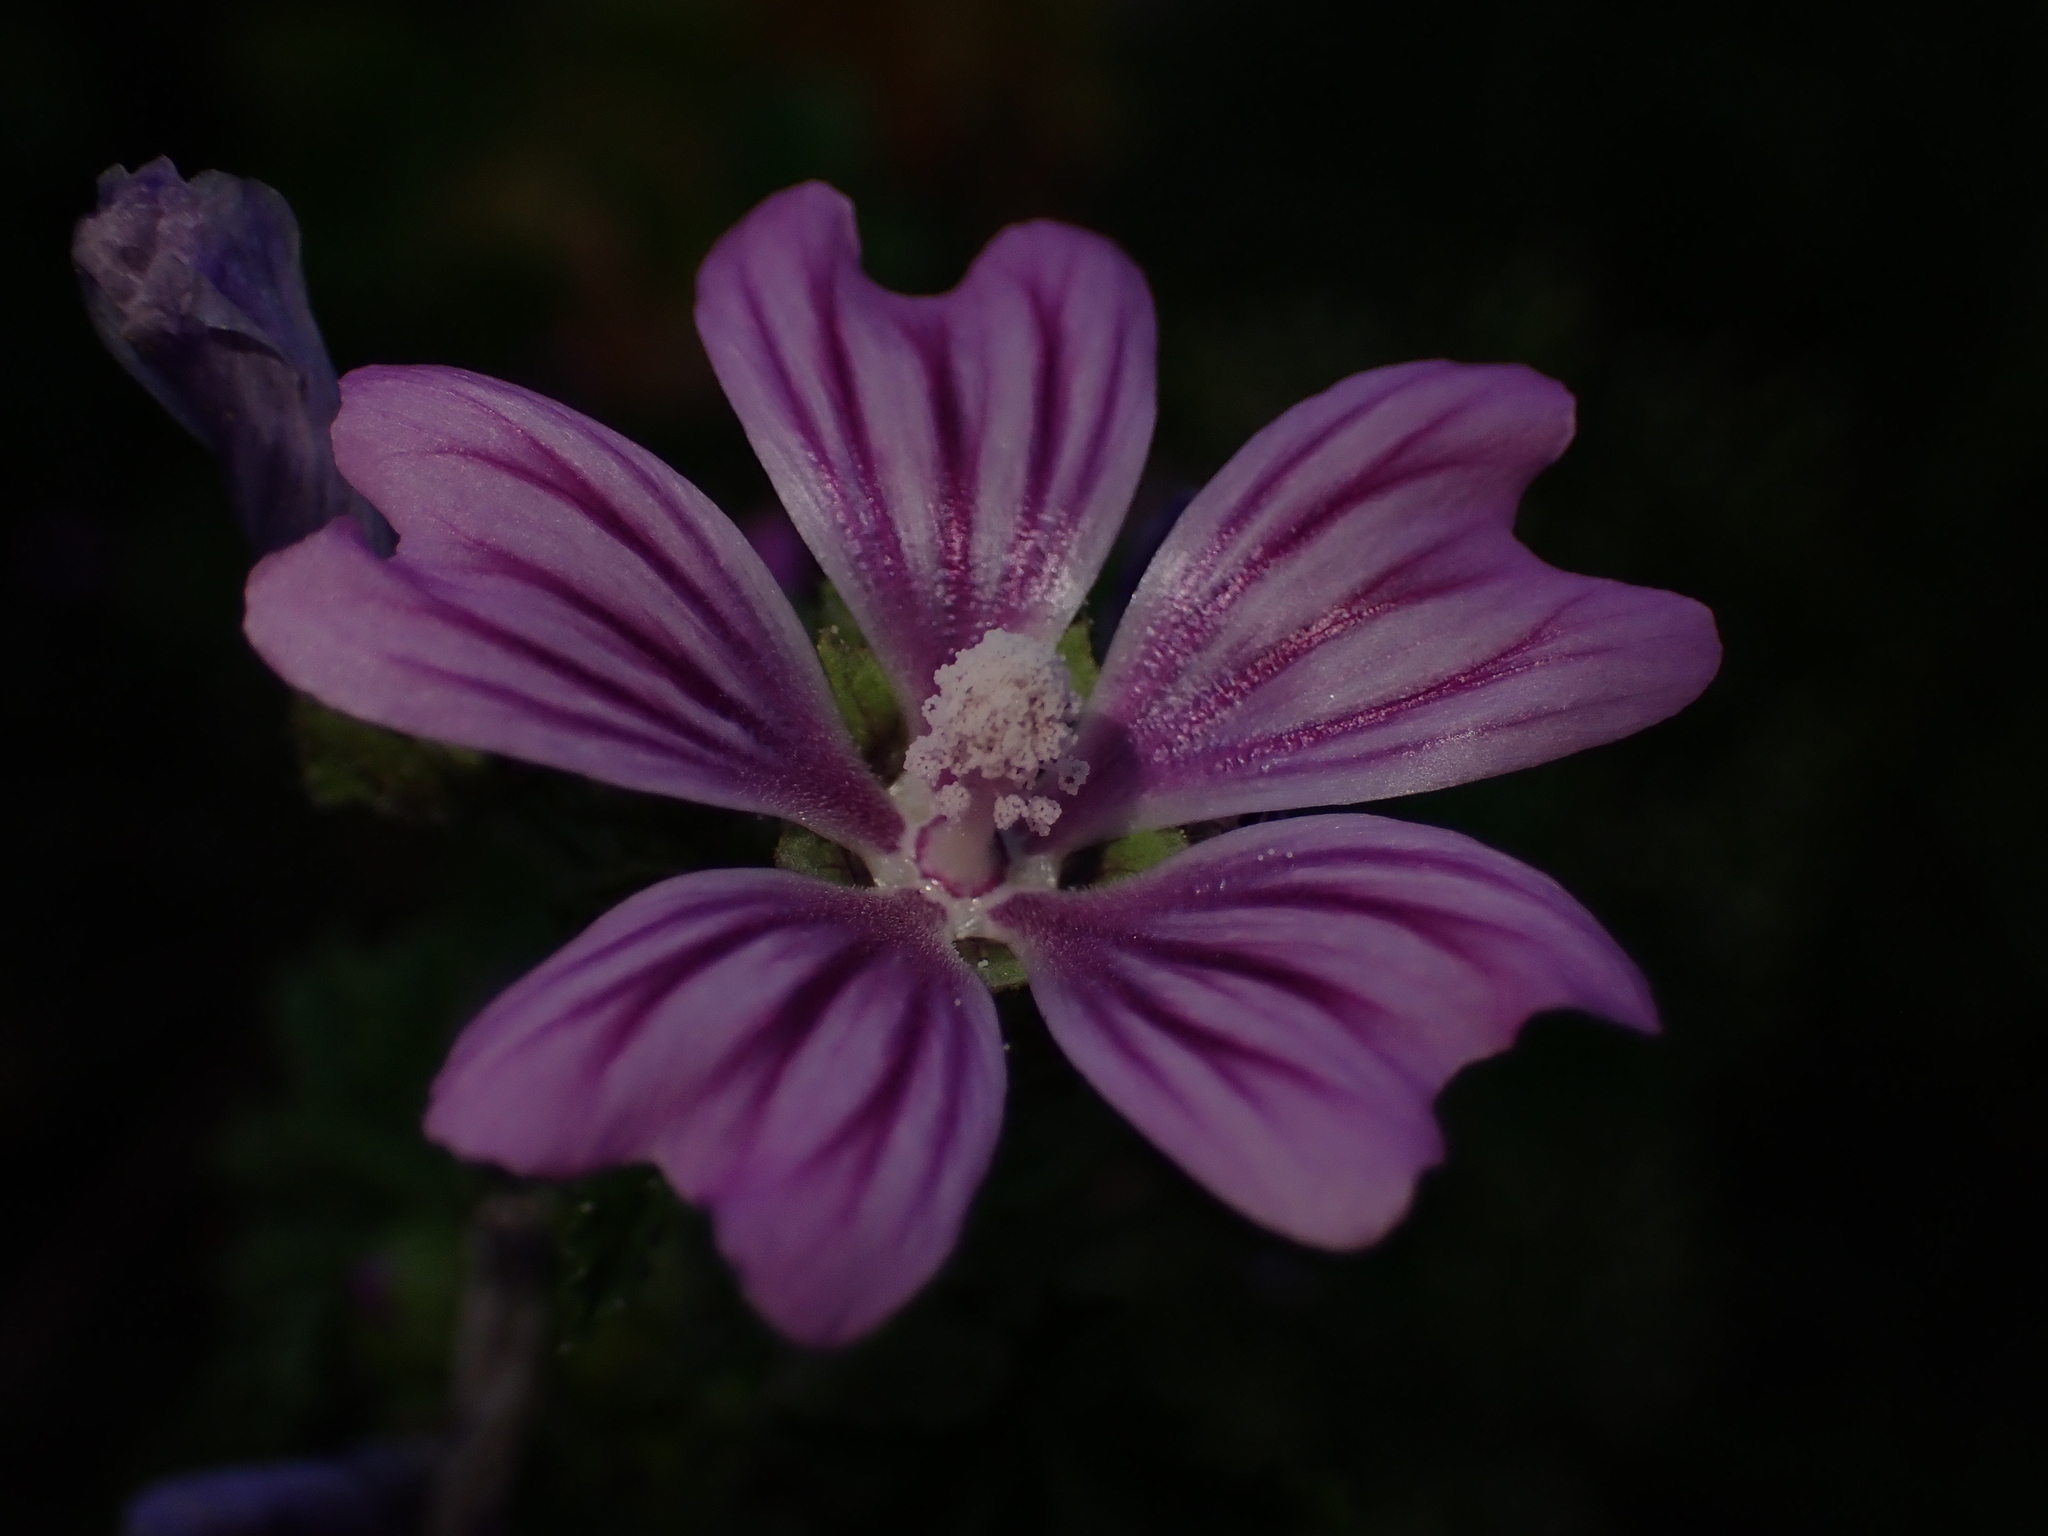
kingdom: Plantae
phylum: Tracheophyta
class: Magnoliopsida
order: Malvales
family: Malvaceae
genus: Malva
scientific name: Malva sylvestris
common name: Common mallow
